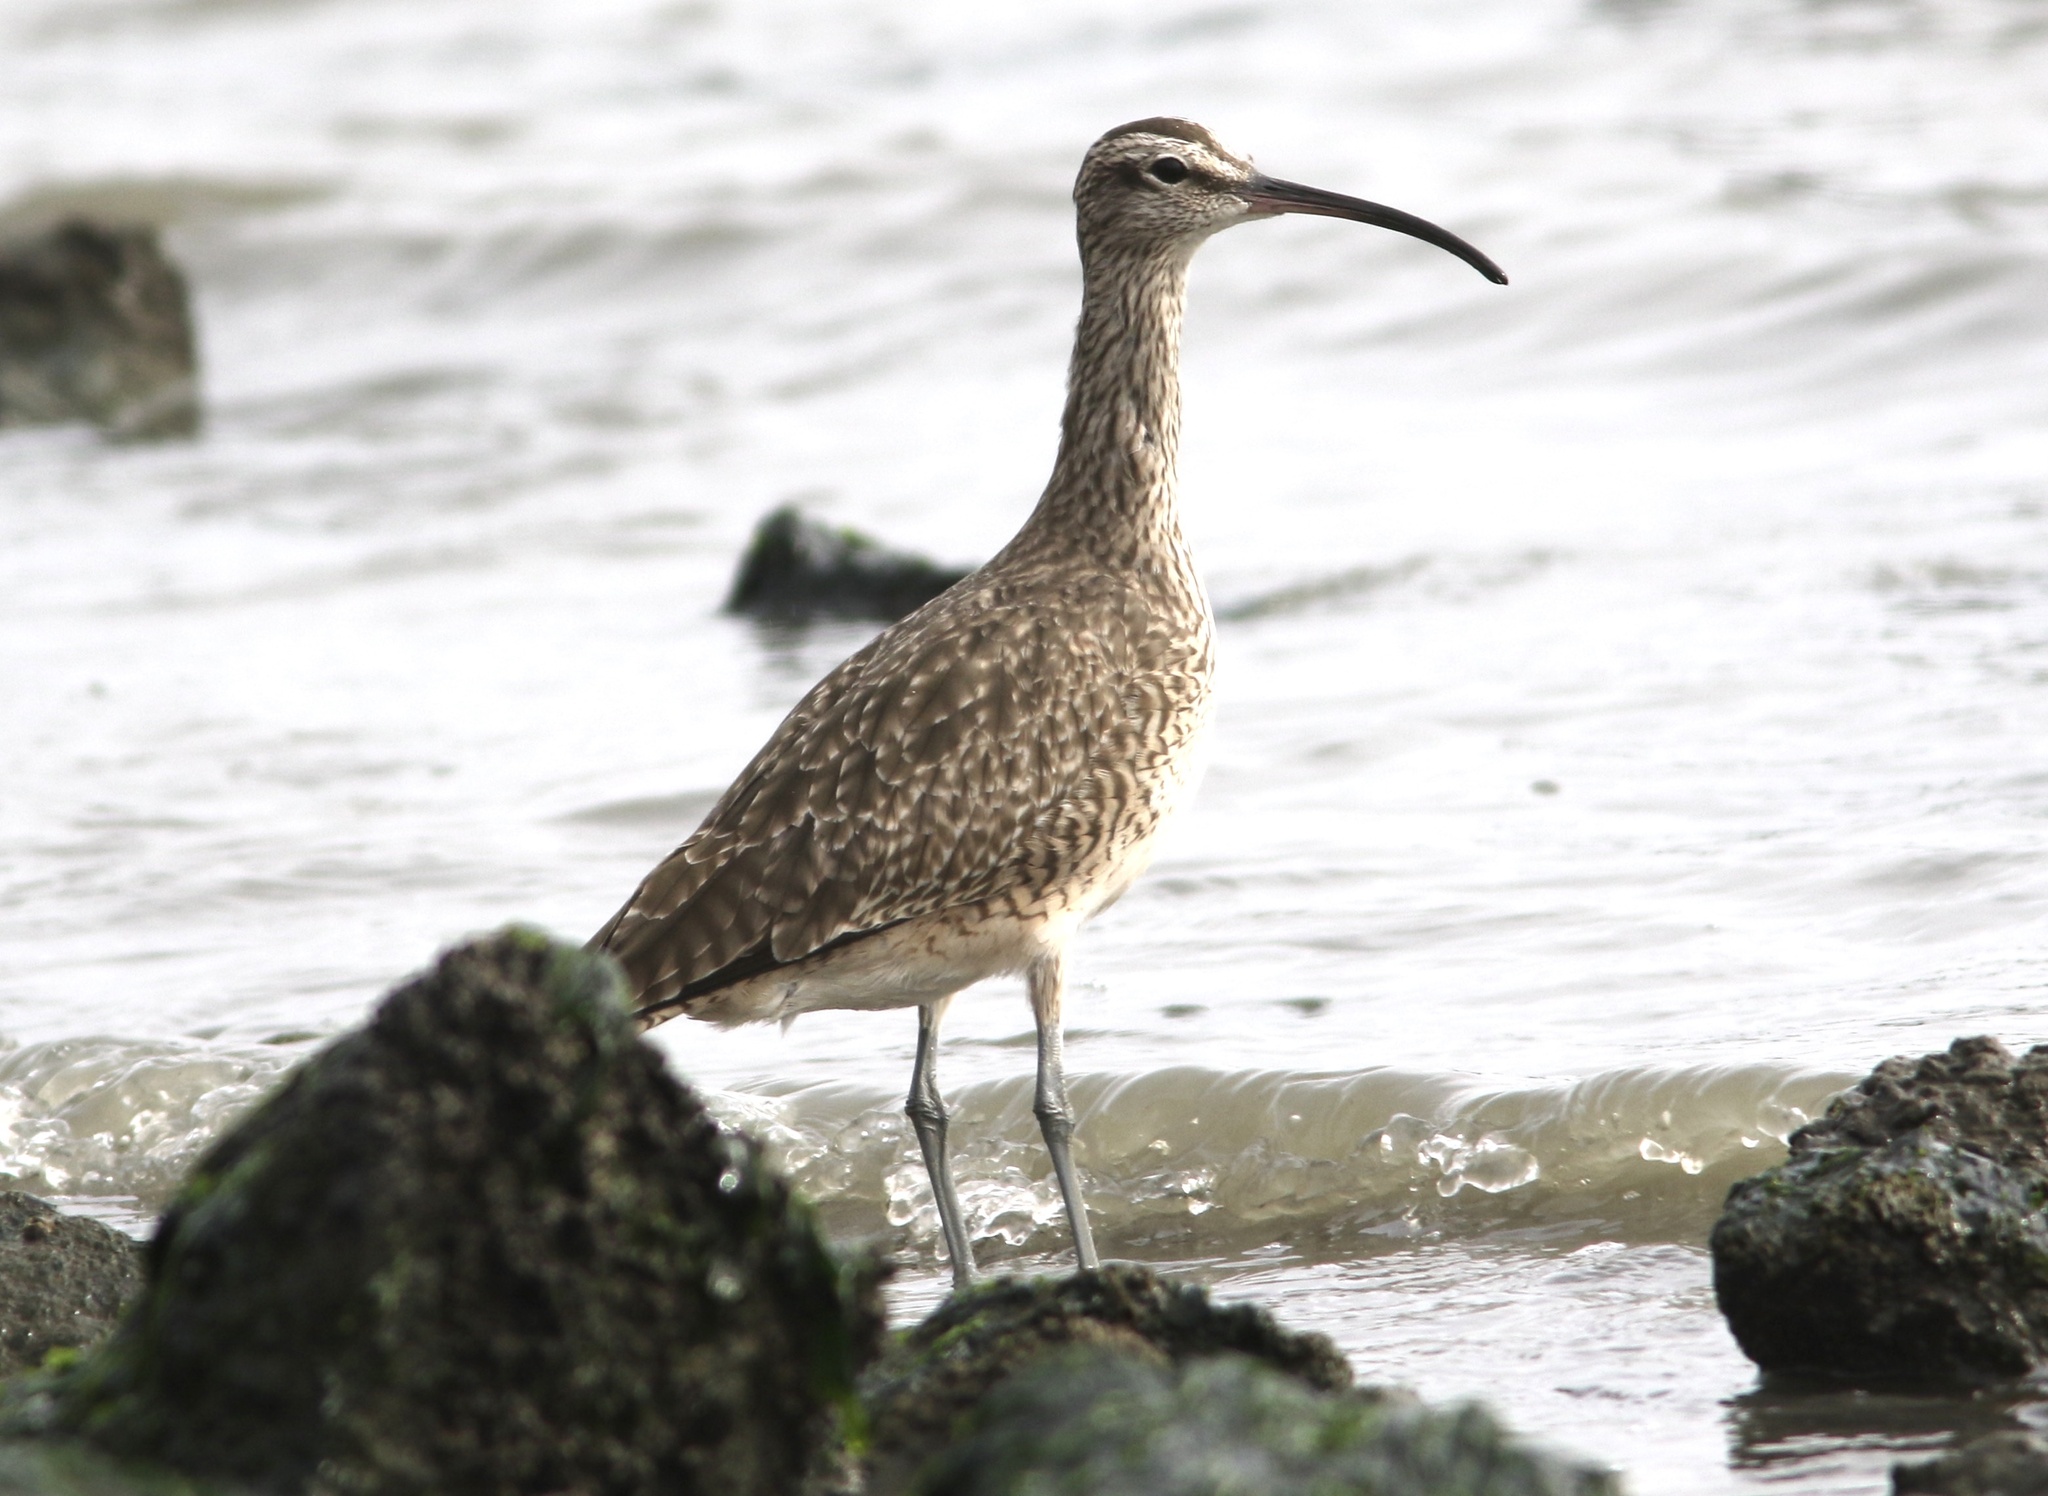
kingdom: Animalia
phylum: Chordata
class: Aves
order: Charadriiformes
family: Scolopacidae
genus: Numenius
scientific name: Numenius phaeopus
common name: Whimbrel
